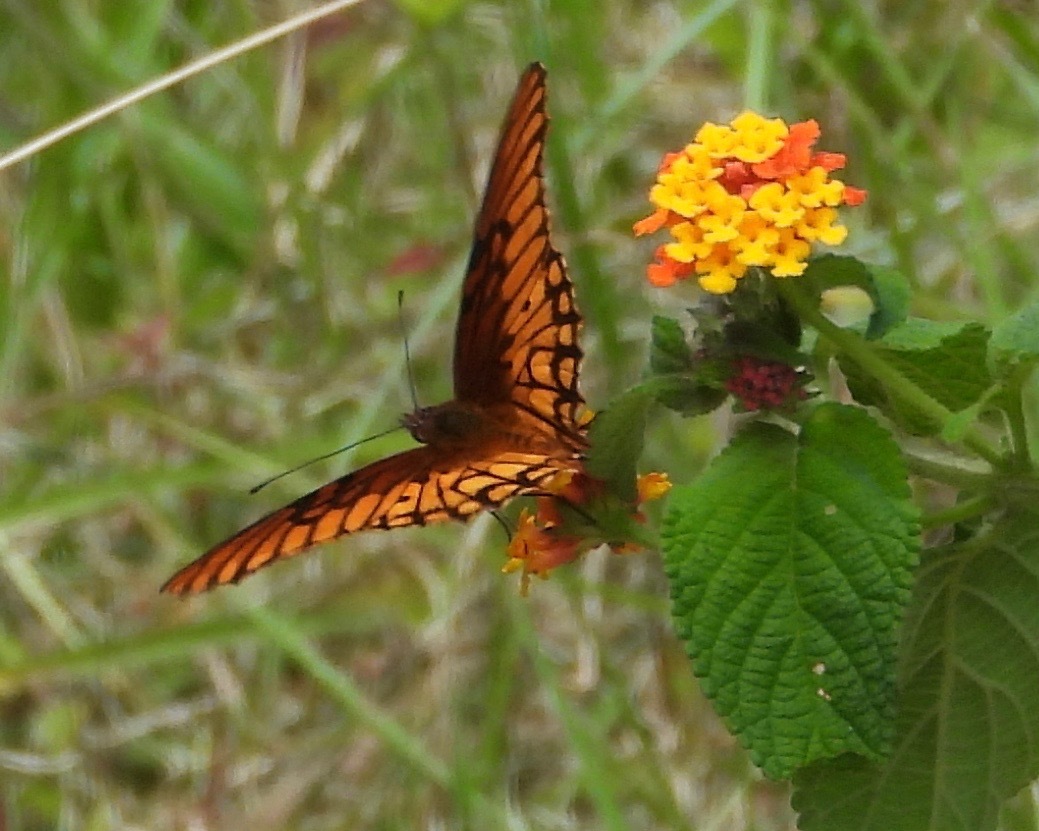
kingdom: Animalia
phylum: Arthropoda
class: Insecta
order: Lepidoptera
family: Nymphalidae
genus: Dione
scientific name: Dione moneta
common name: Mexican silverspot
